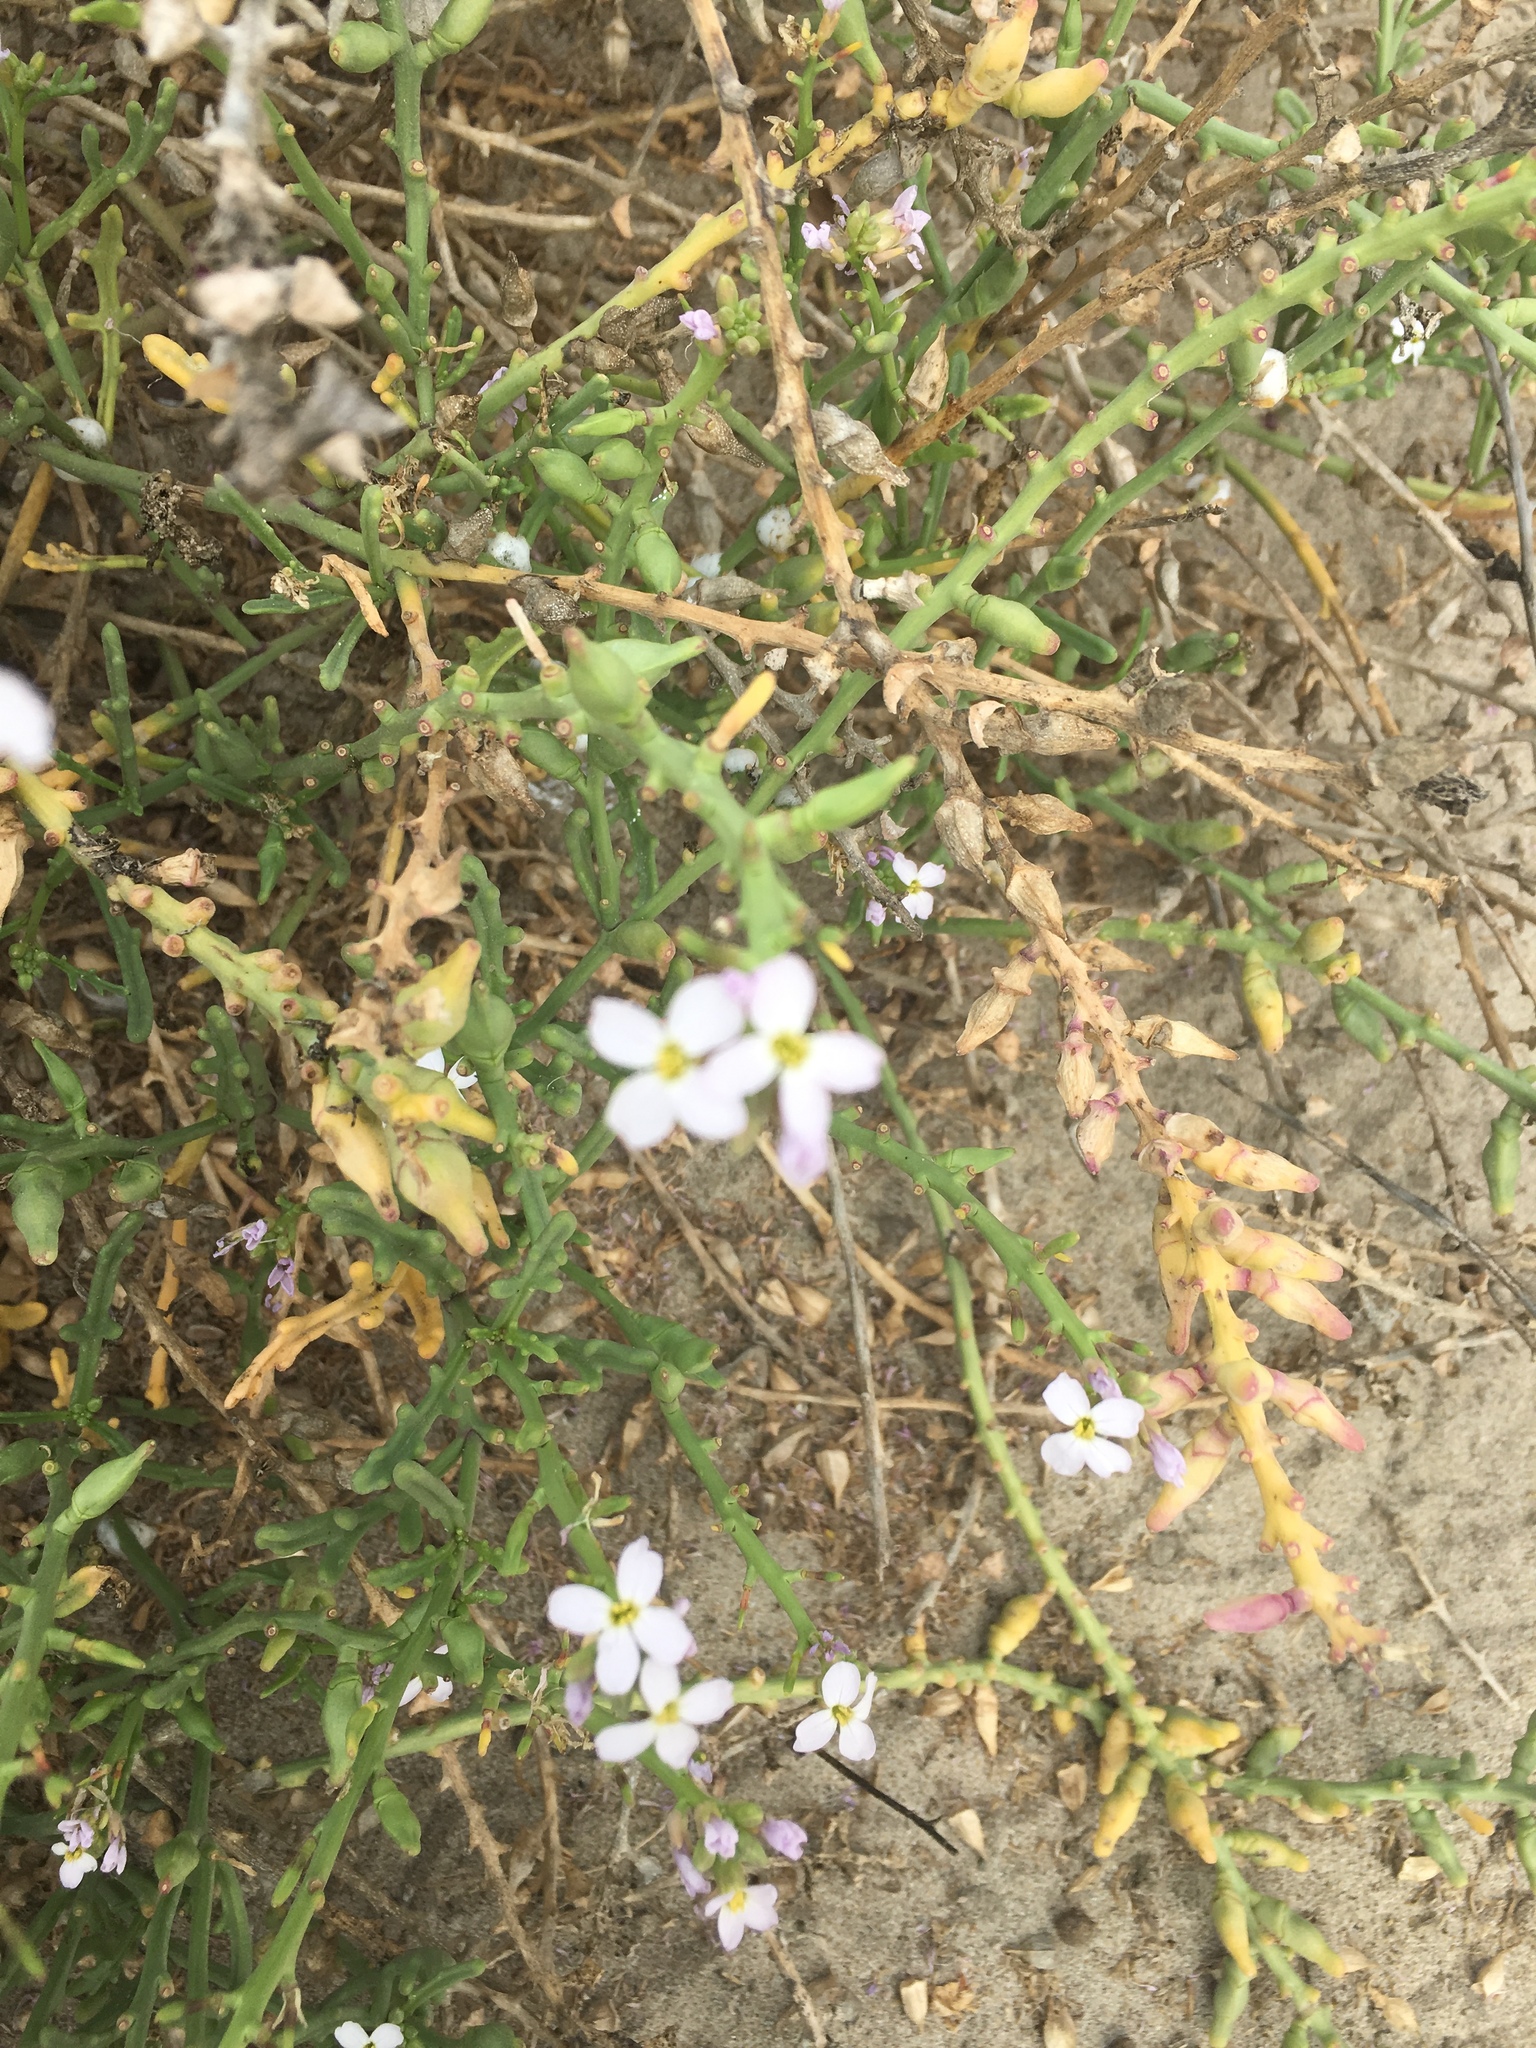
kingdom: Plantae
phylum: Tracheophyta
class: Magnoliopsida
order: Brassicales
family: Brassicaceae
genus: Cakile
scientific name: Cakile maritima
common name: Sea rocket
